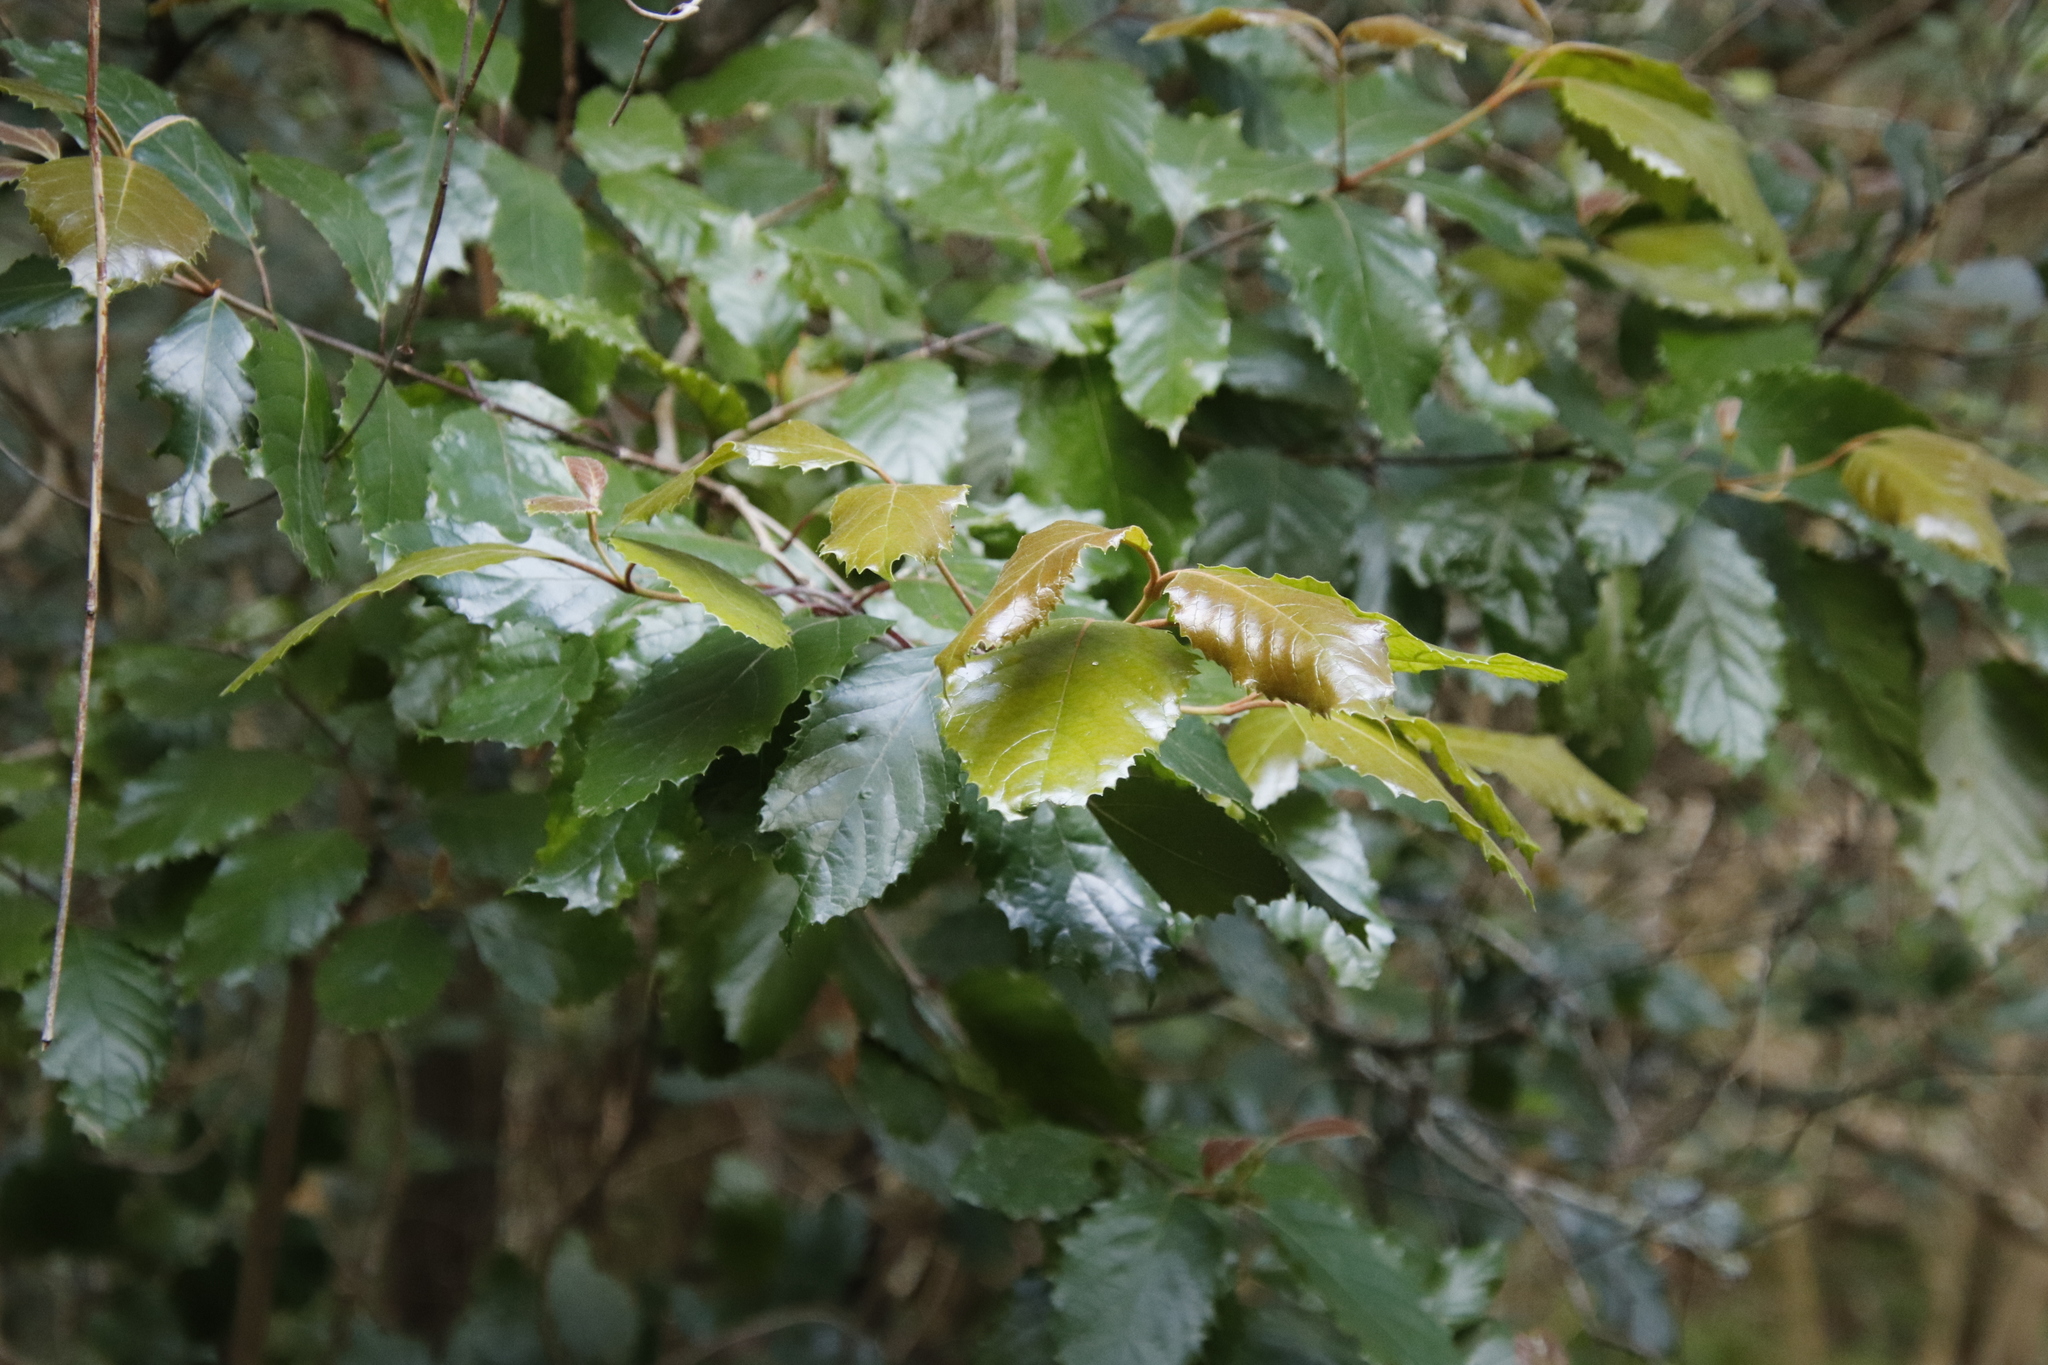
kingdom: Plantae
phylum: Tracheophyta
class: Magnoliopsida
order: Cornales
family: Curtisiaceae
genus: Curtisia
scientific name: Curtisia dentata
